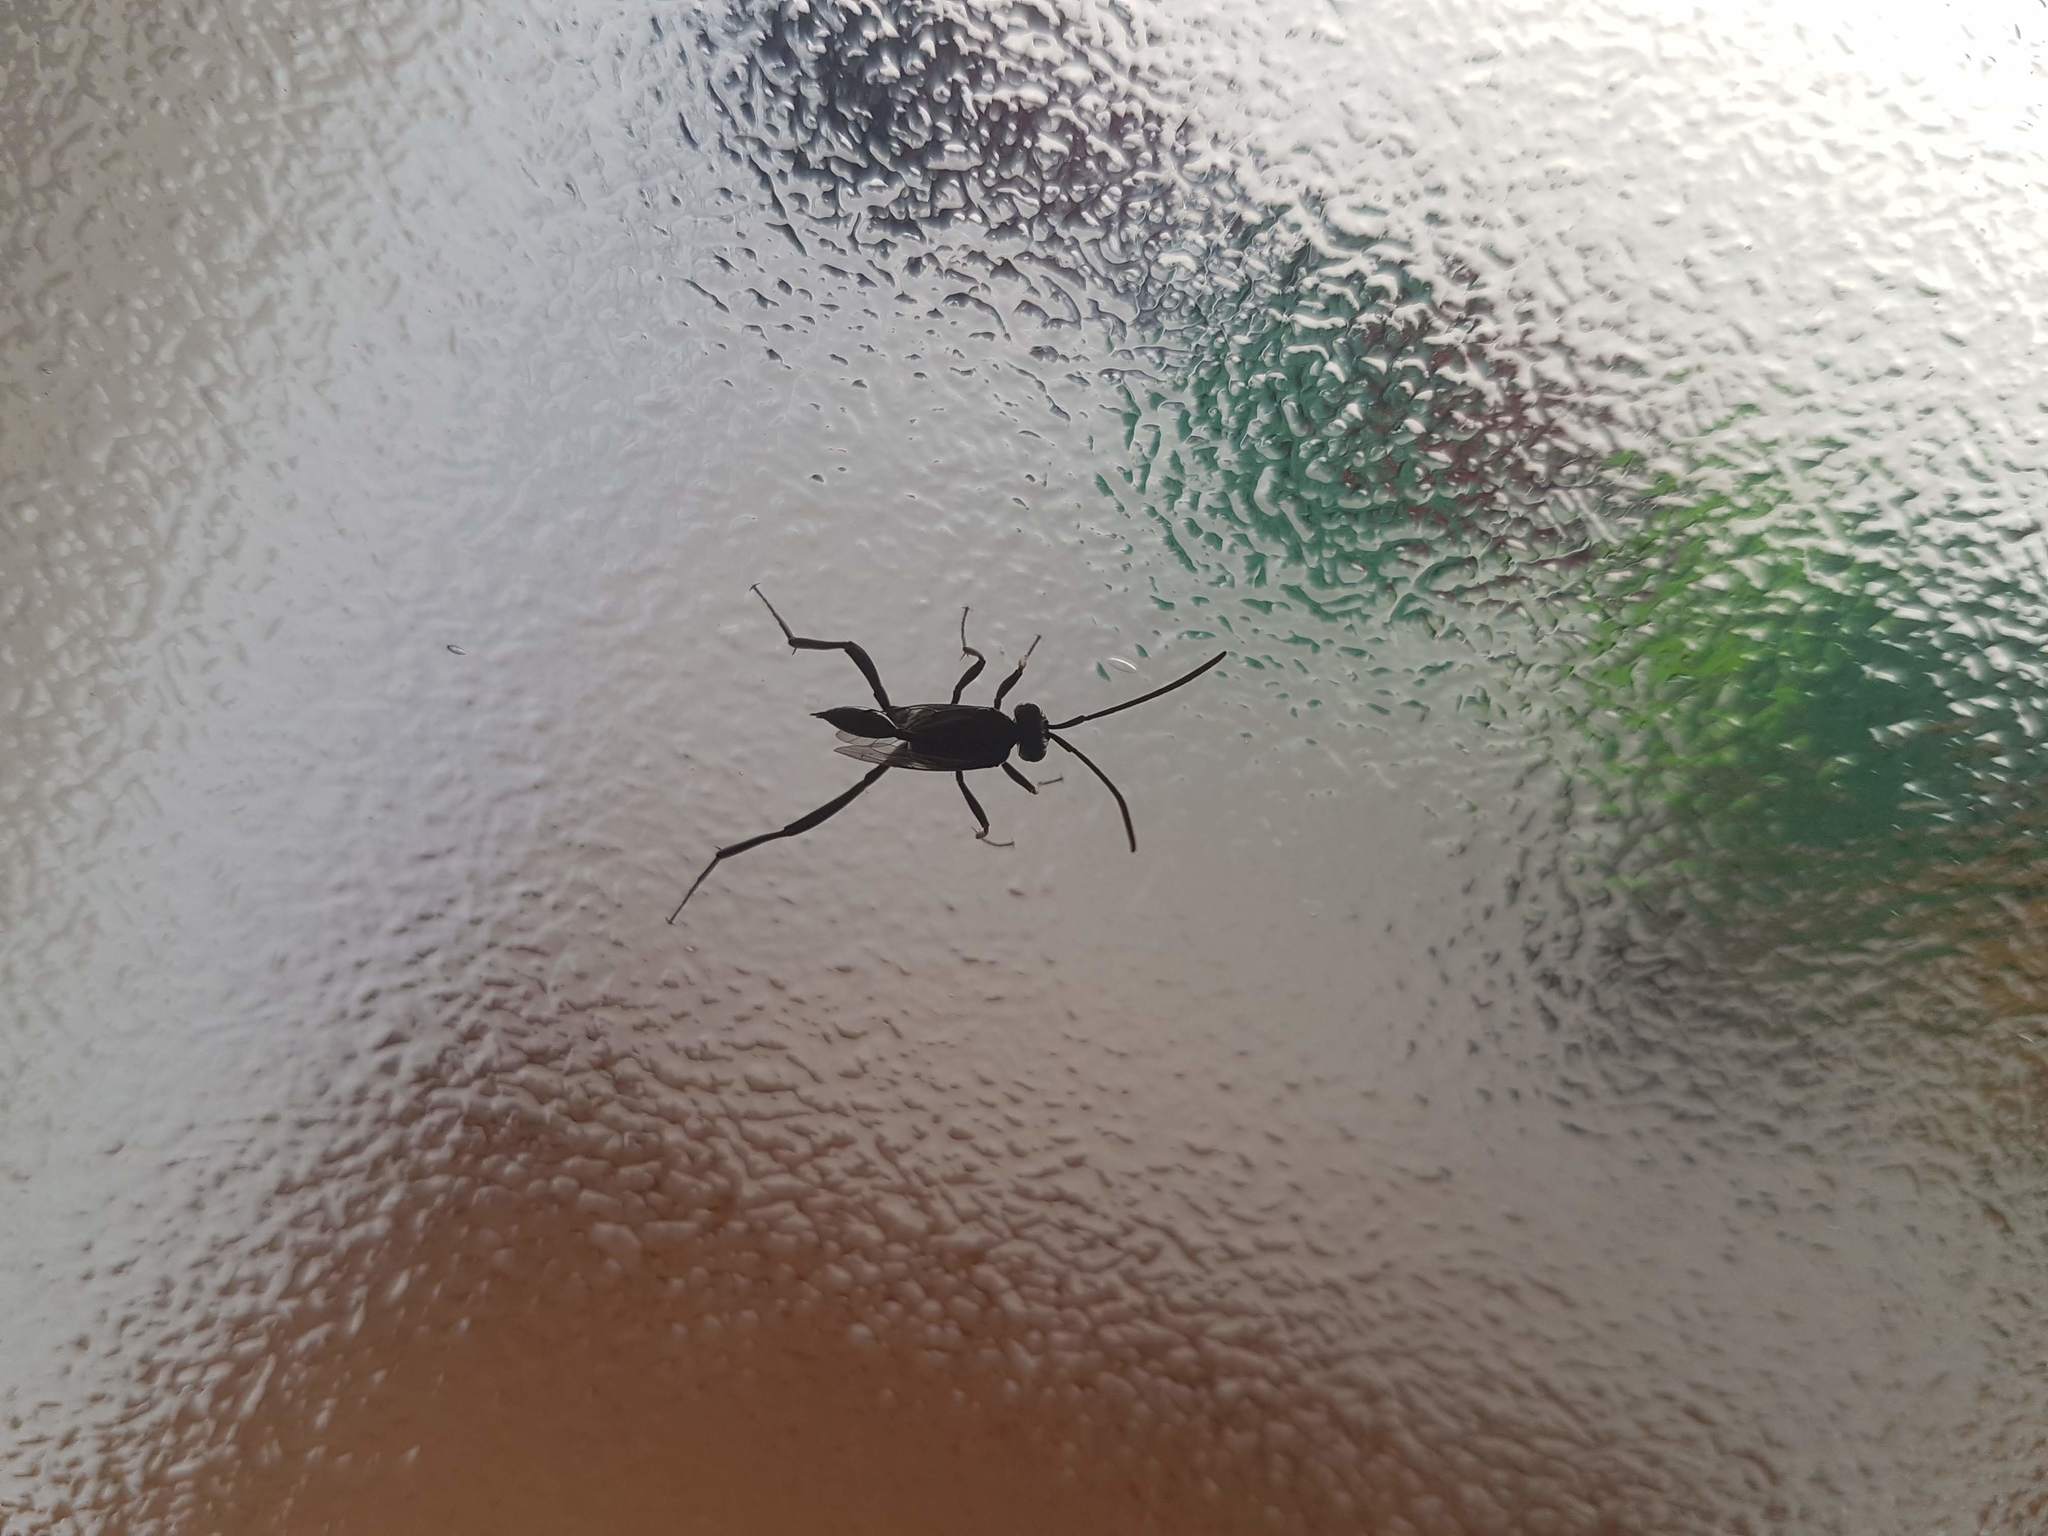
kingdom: Animalia
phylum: Arthropoda
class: Insecta
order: Hymenoptera
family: Evaniidae
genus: Evania
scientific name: Evania appendigaster
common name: Ensign wasp
